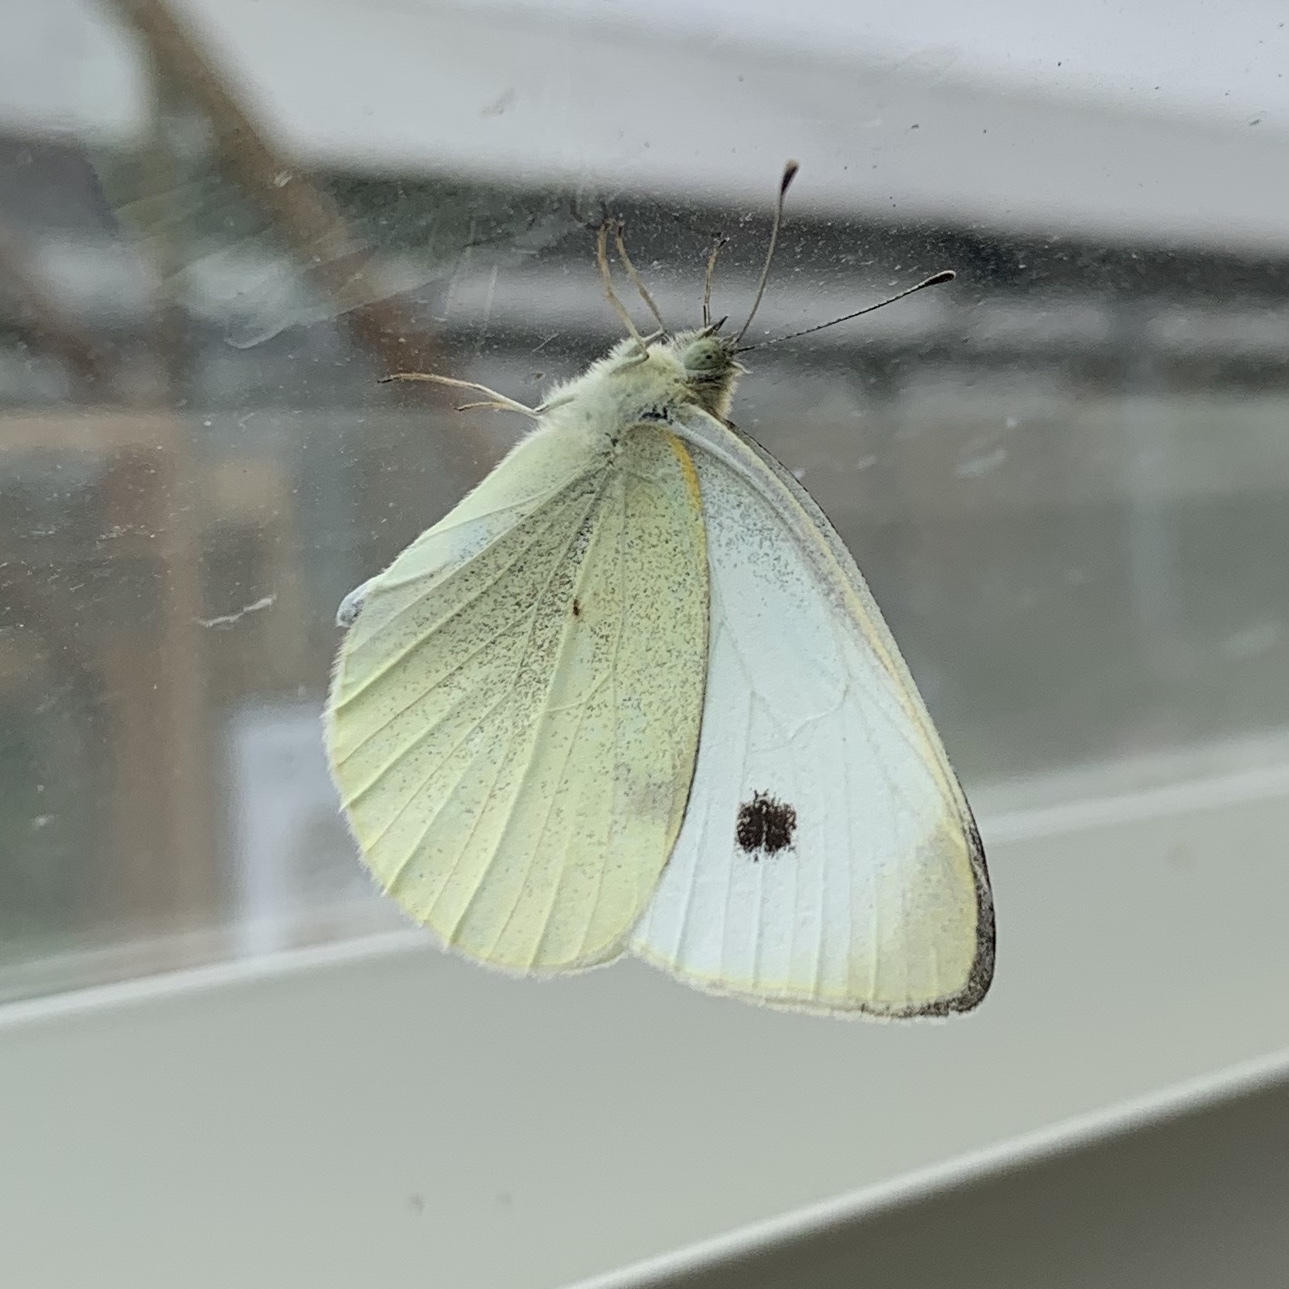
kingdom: Animalia
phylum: Arthropoda
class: Insecta
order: Lepidoptera
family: Pieridae
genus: Pieris
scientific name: Pieris rapae
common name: Small white
